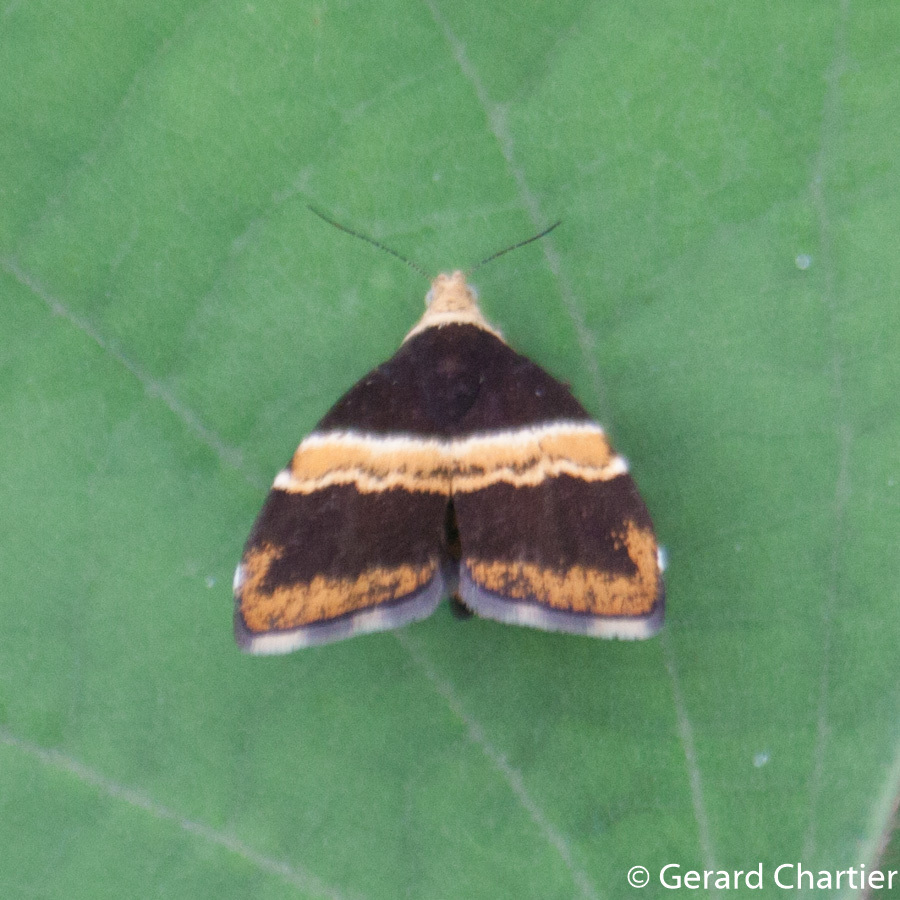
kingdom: Animalia
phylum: Arthropoda
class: Insecta
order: Lepidoptera
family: Choreutidae
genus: Choreutis
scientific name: Choreutis basalis
